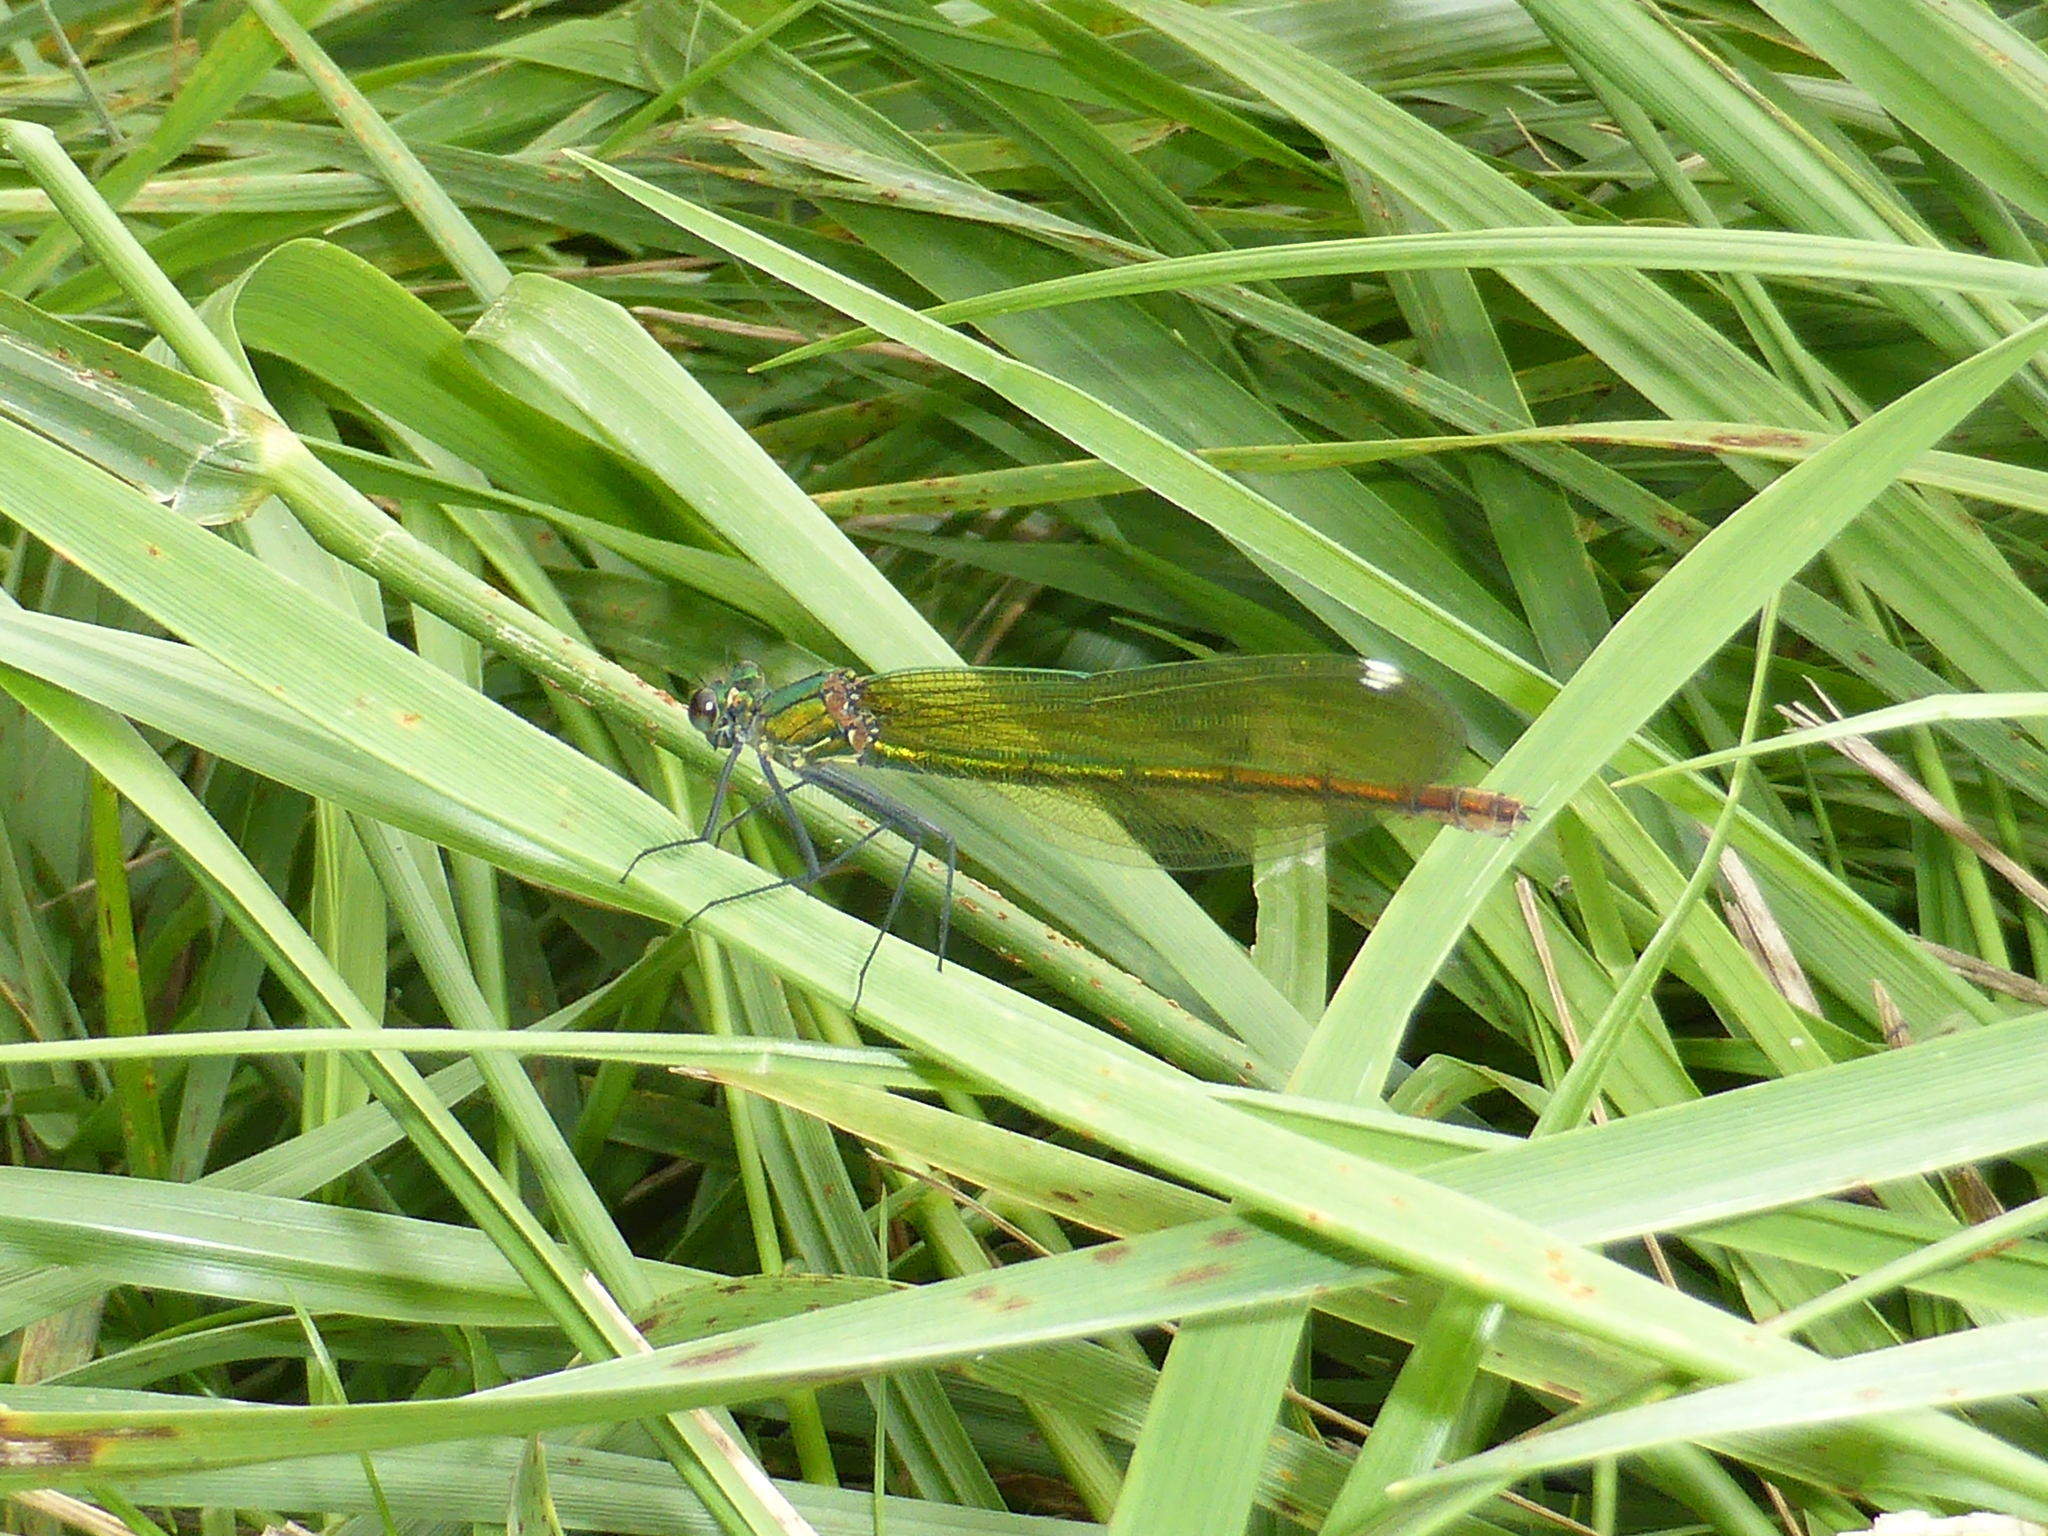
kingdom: Animalia
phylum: Arthropoda
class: Insecta
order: Odonata
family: Calopterygidae
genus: Calopteryx
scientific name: Calopteryx splendens
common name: Banded demoiselle
